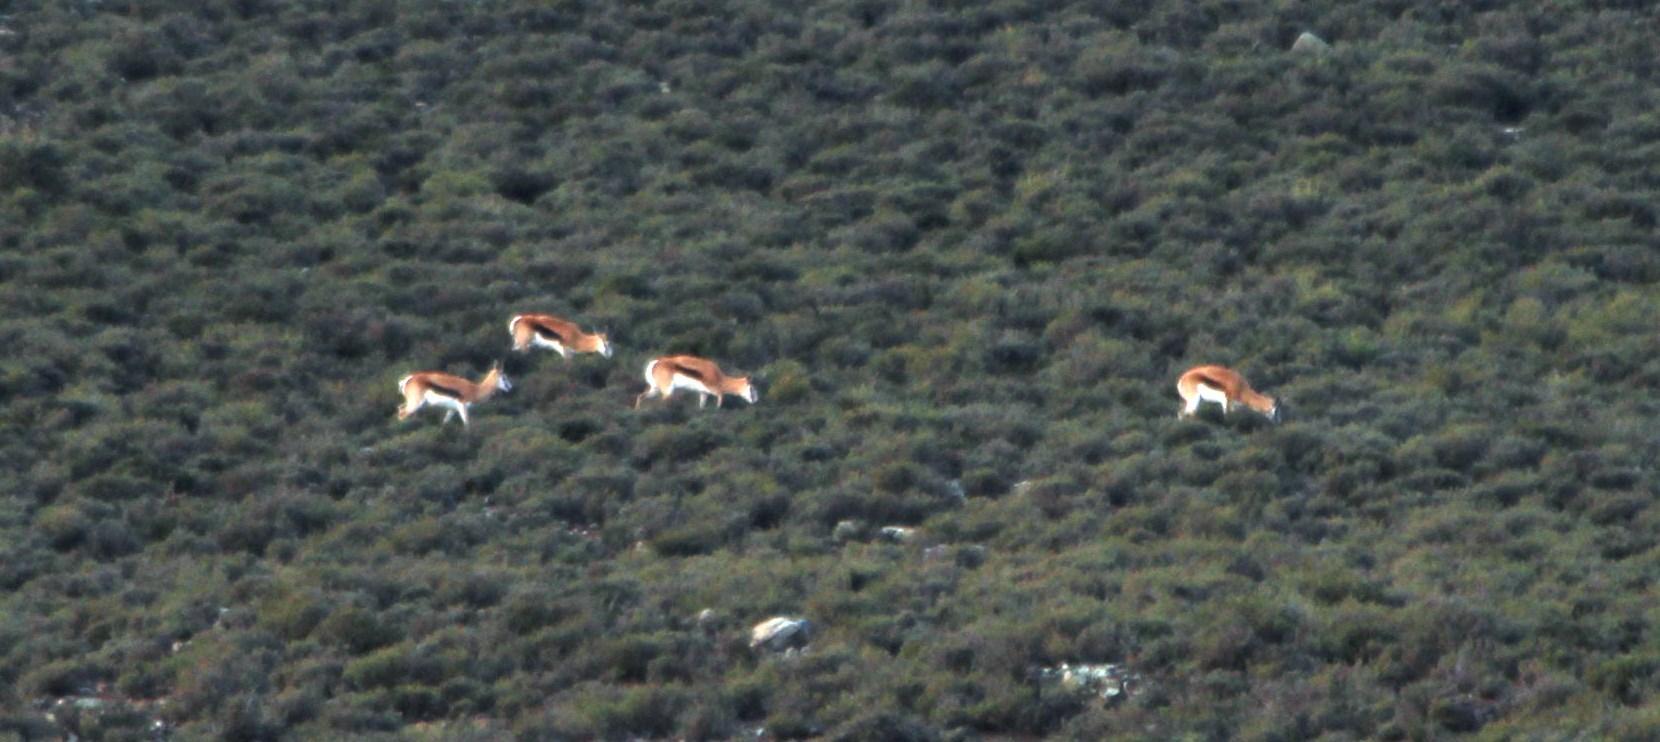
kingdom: Animalia
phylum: Chordata
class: Mammalia
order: Artiodactyla
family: Bovidae
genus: Antidorcas
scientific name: Antidorcas marsupialis
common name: Springbok
